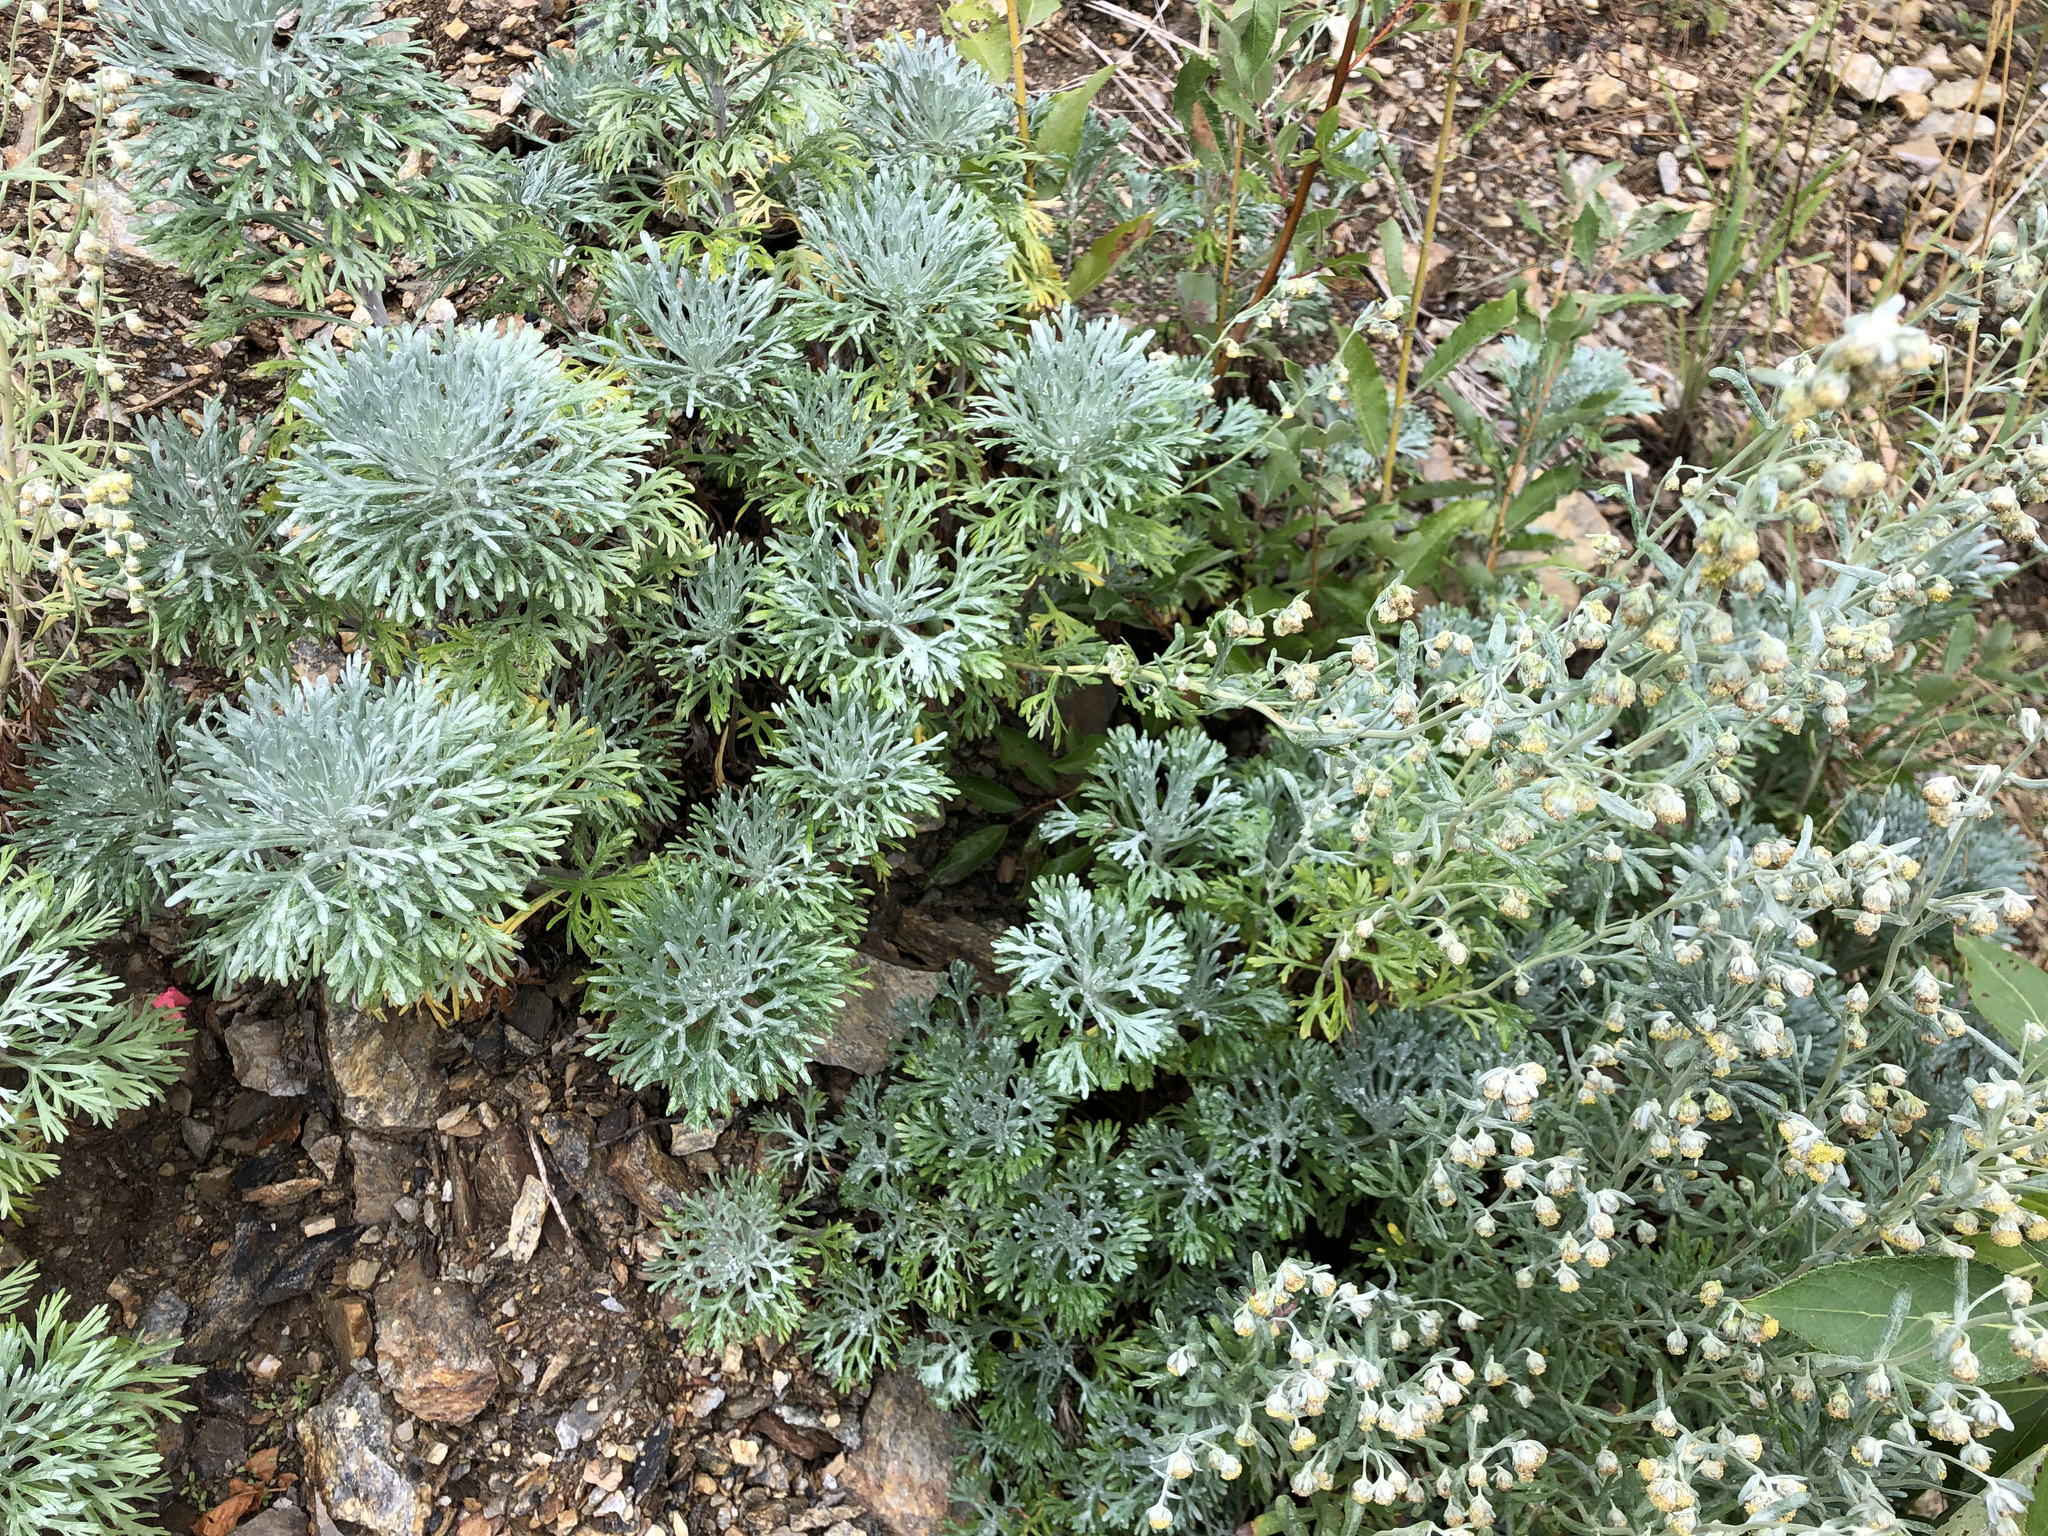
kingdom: Plantae
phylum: Tracheophyta
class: Magnoliopsida
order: Asterales
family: Asteraceae
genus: Artemisia
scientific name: Artemisia kruhsiana
